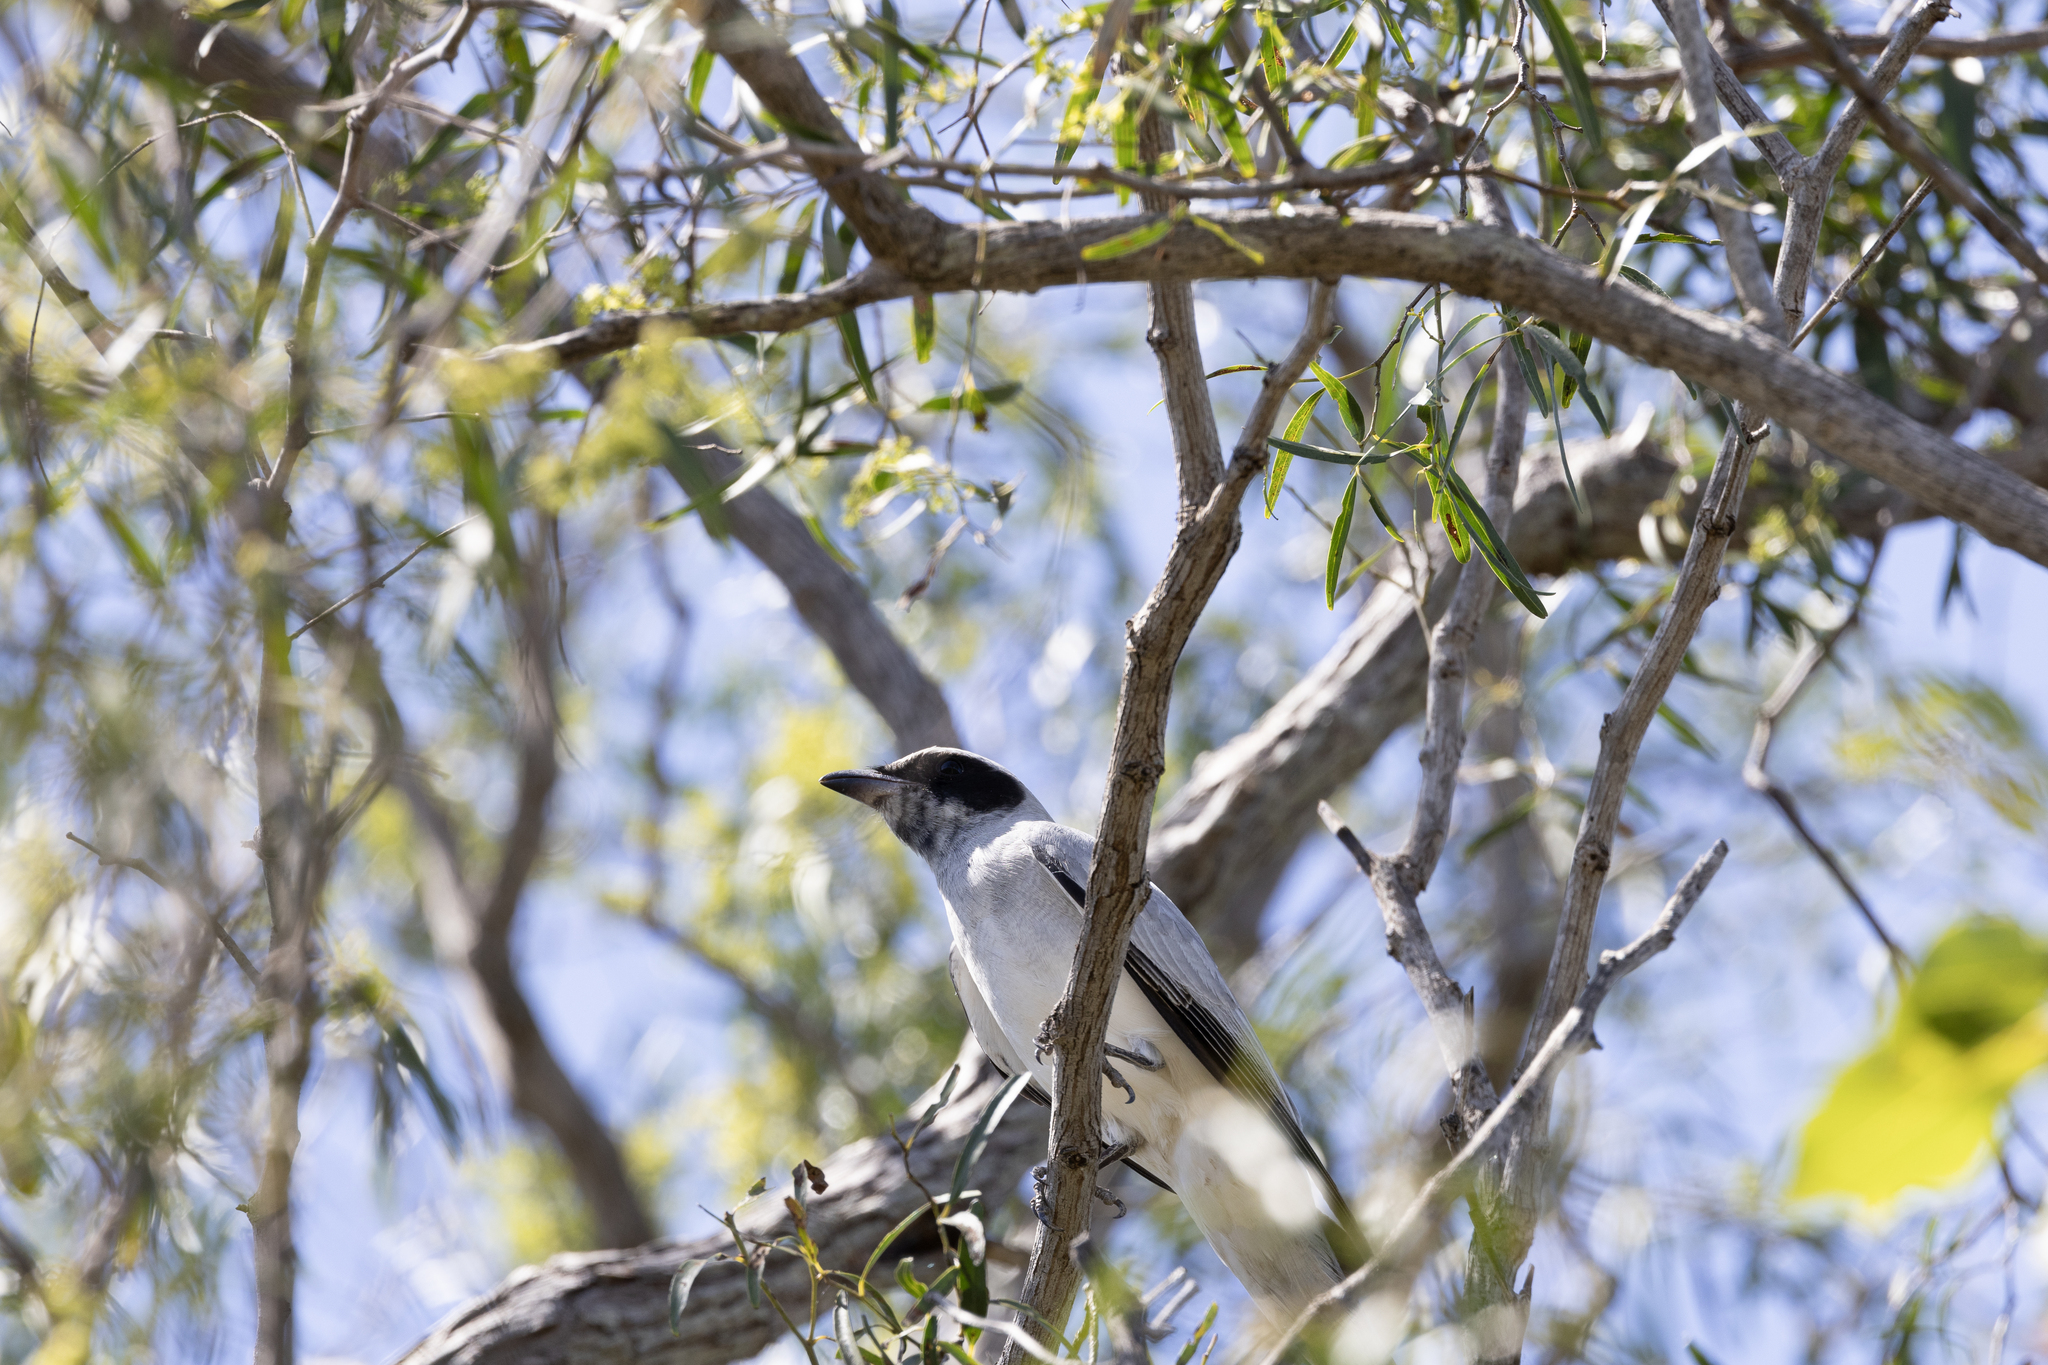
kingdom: Animalia
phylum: Chordata
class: Aves
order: Passeriformes
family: Campephagidae
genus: Coracina
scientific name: Coracina novaehollandiae
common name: Black-faced cuckooshrike
